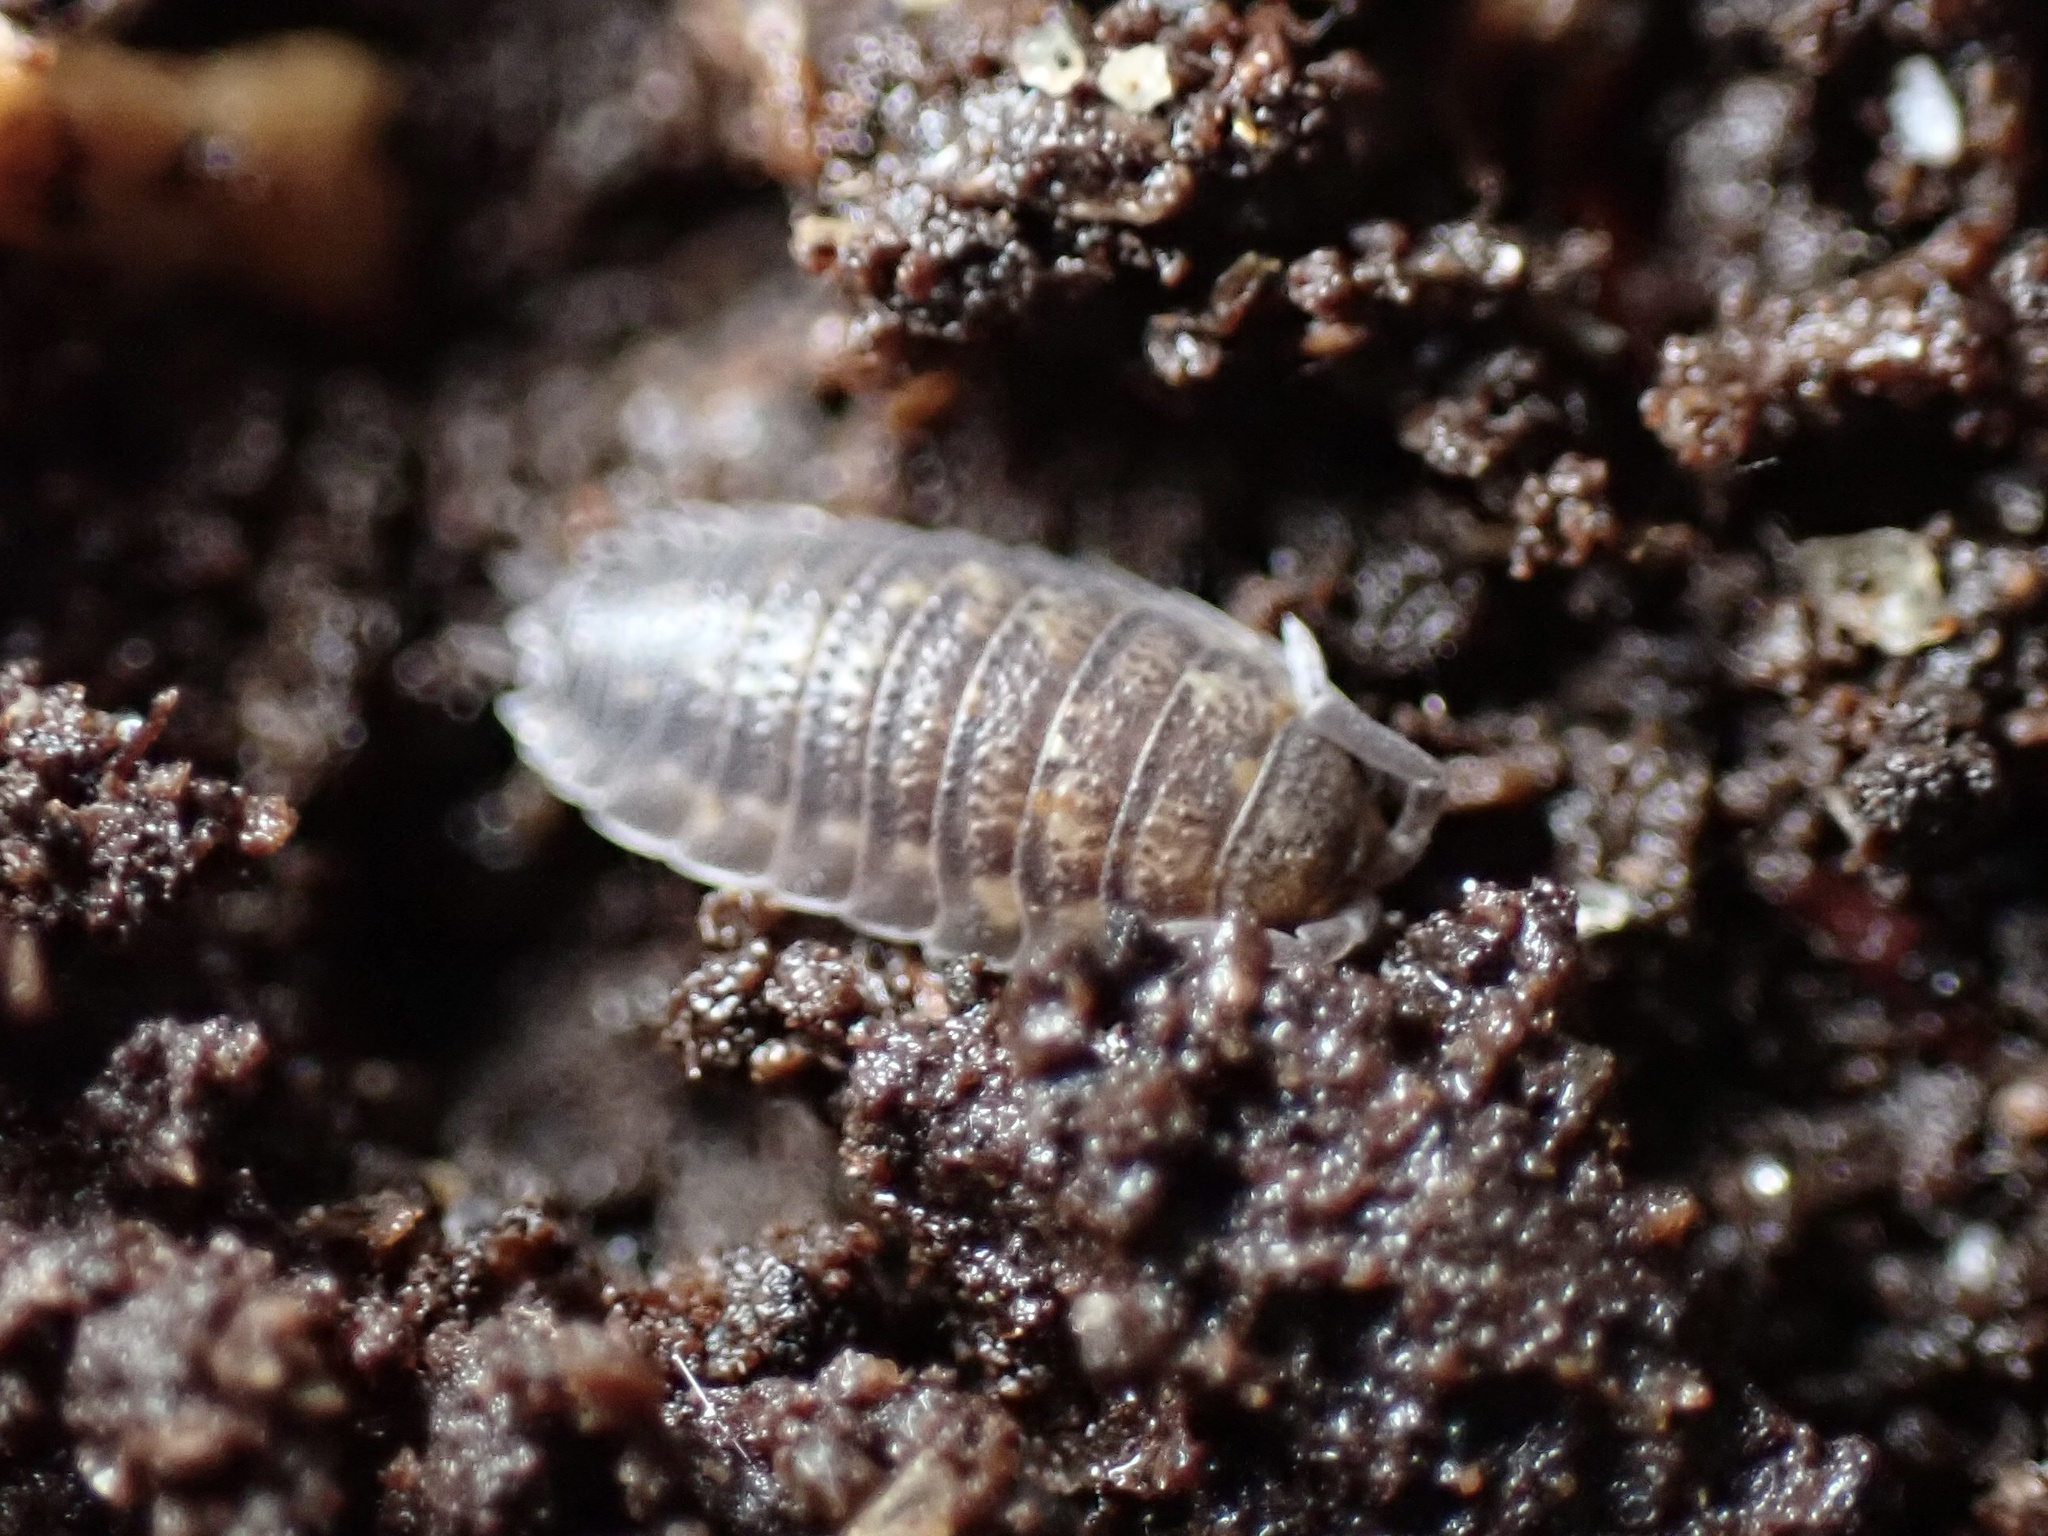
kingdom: Animalia
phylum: Arthropoda
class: Malacostraca
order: Isopoda
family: Porcellionidae
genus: Porcellio
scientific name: Porcellio scaber
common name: Common rough woodlouse
